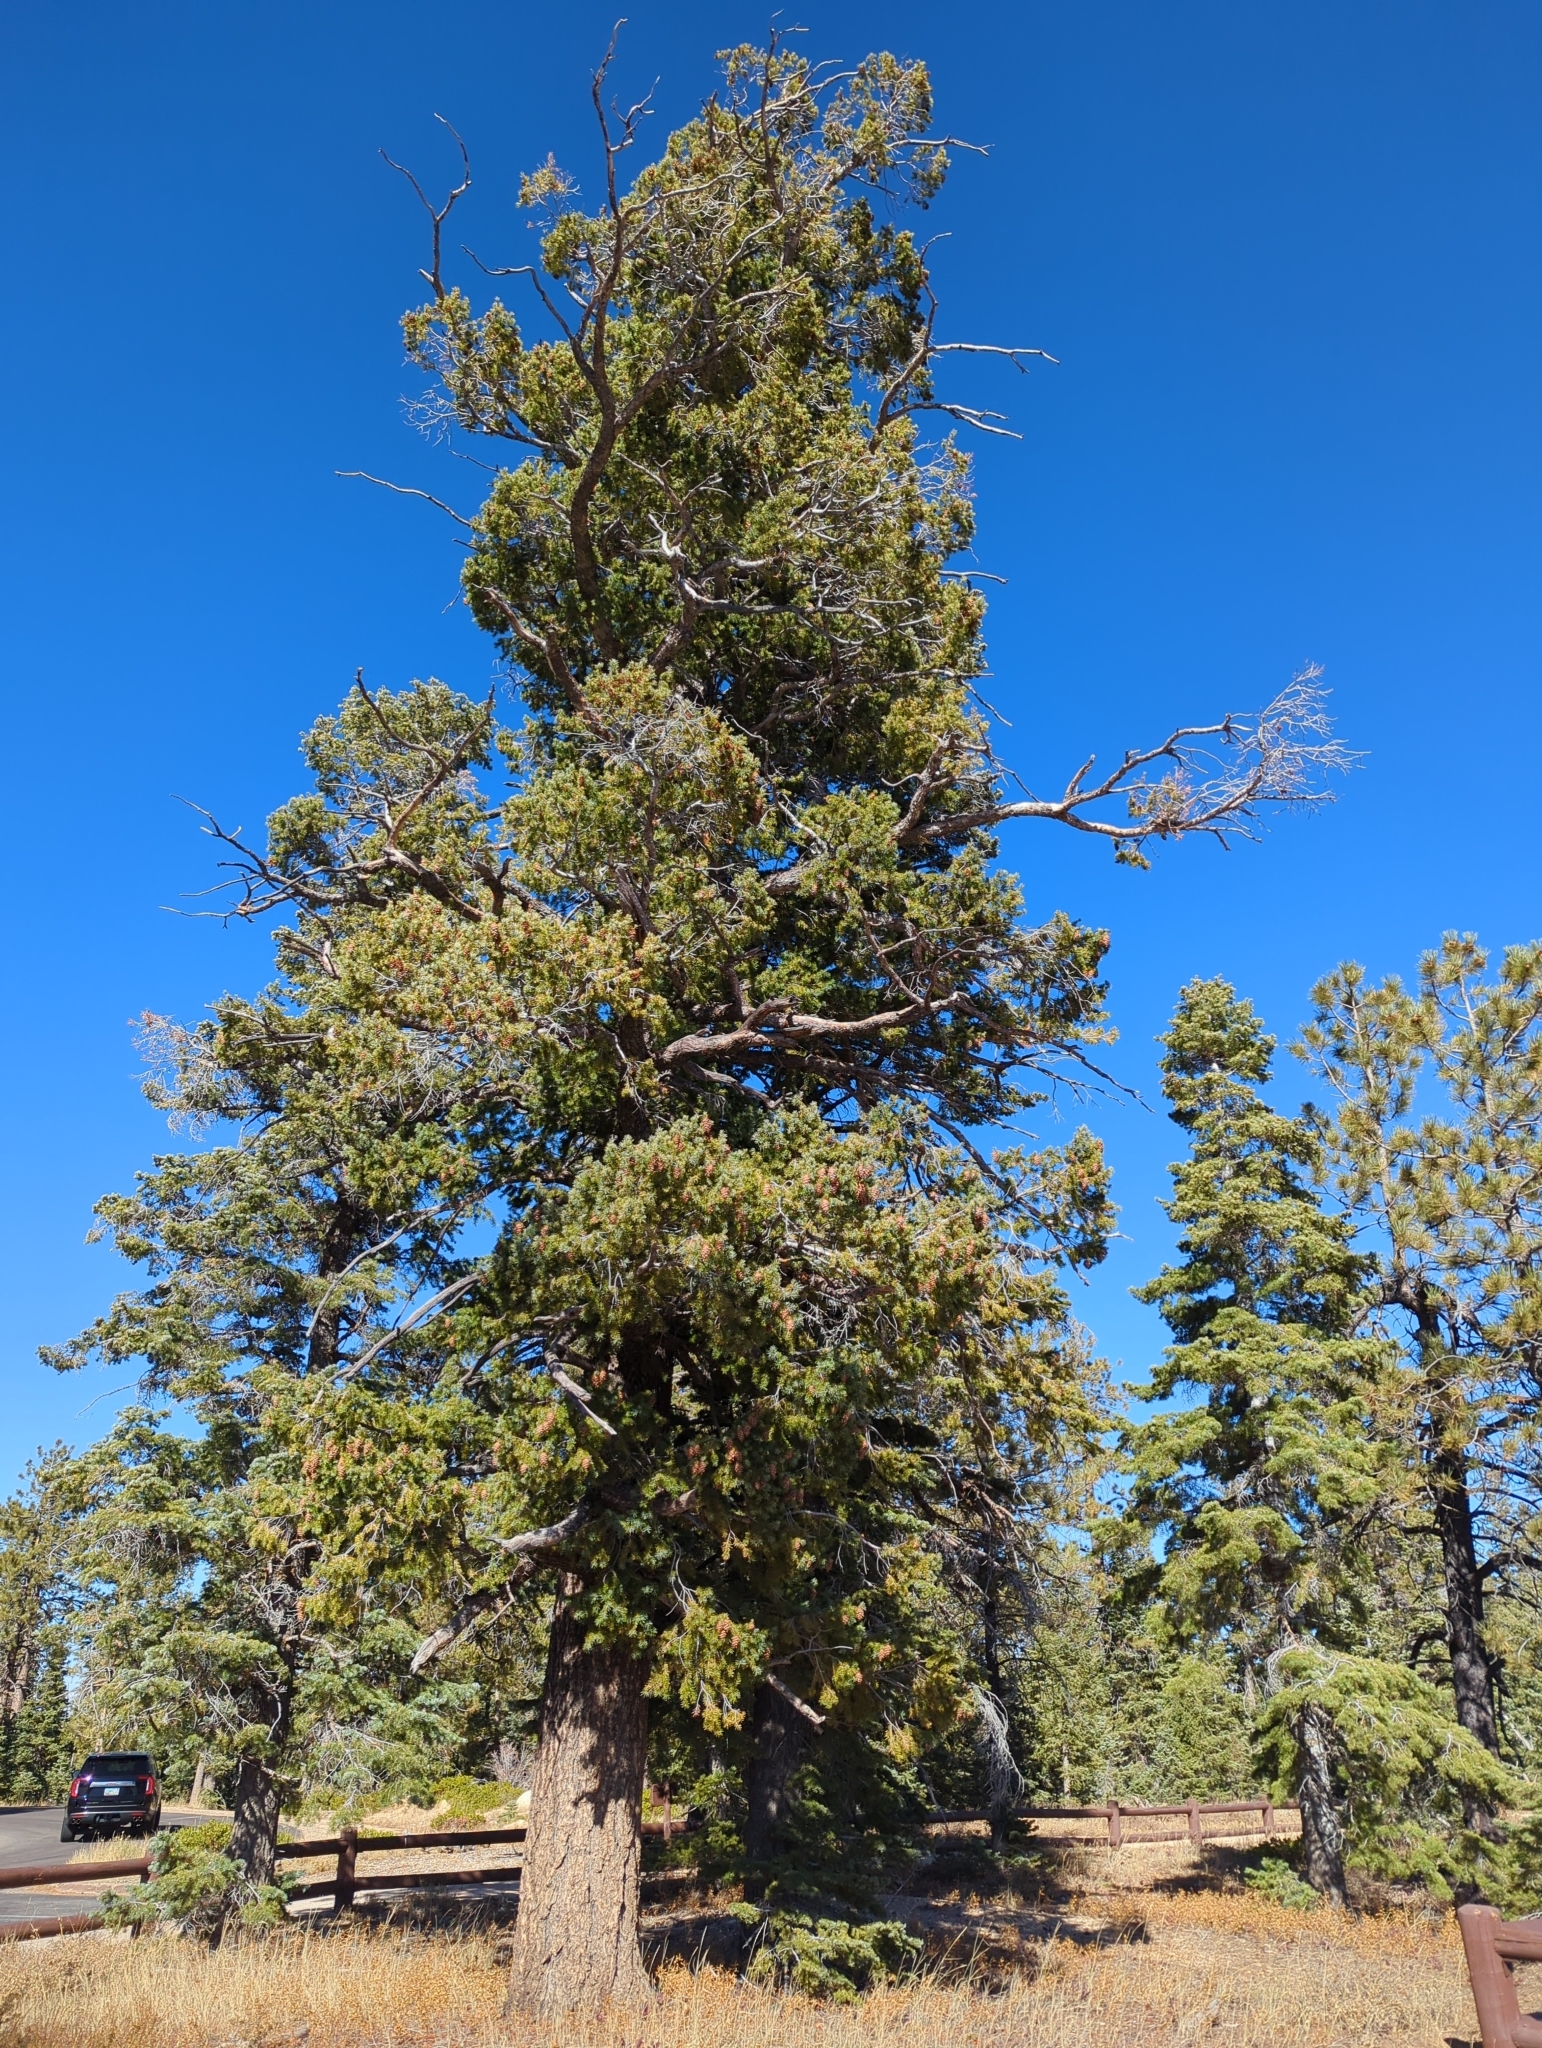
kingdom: Plantae
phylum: Tracheophyta
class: Pinopsida
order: Pinales
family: Pinaceae
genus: Pseudotsuga
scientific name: Pseudotsuga menziesii
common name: Douglas fir
